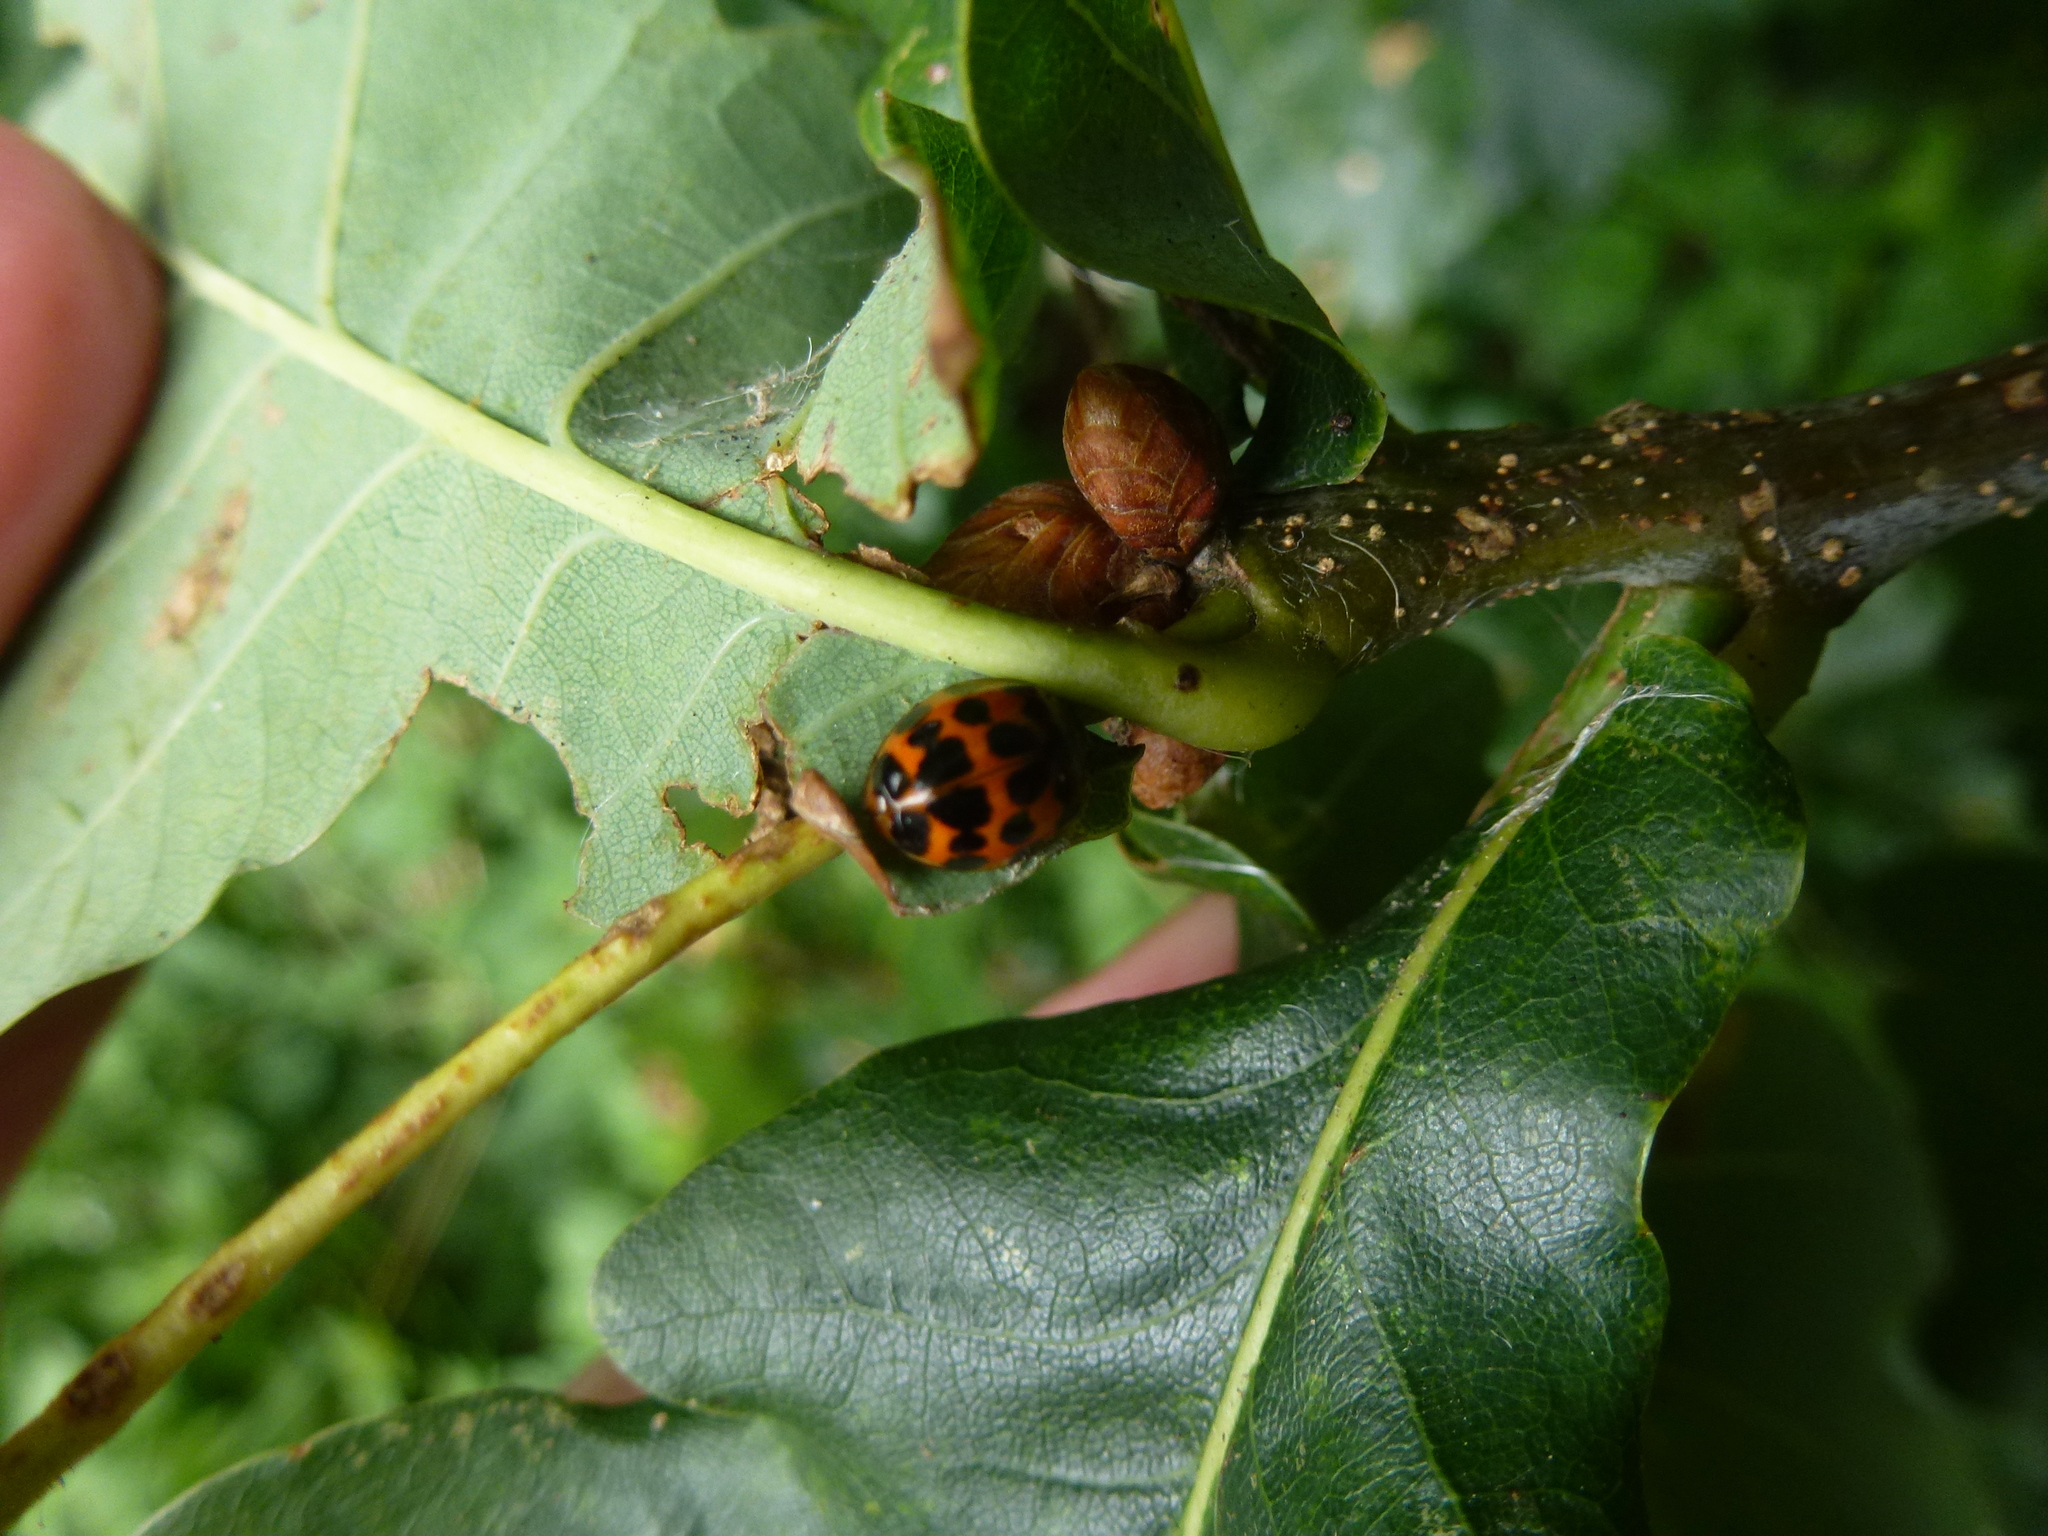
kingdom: Animalia
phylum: Arthropoda
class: Insecta
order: Coleoptera
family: Coccinellidae
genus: Harmonia
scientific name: Harmonia axyridis
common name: Harlequin ladybird
